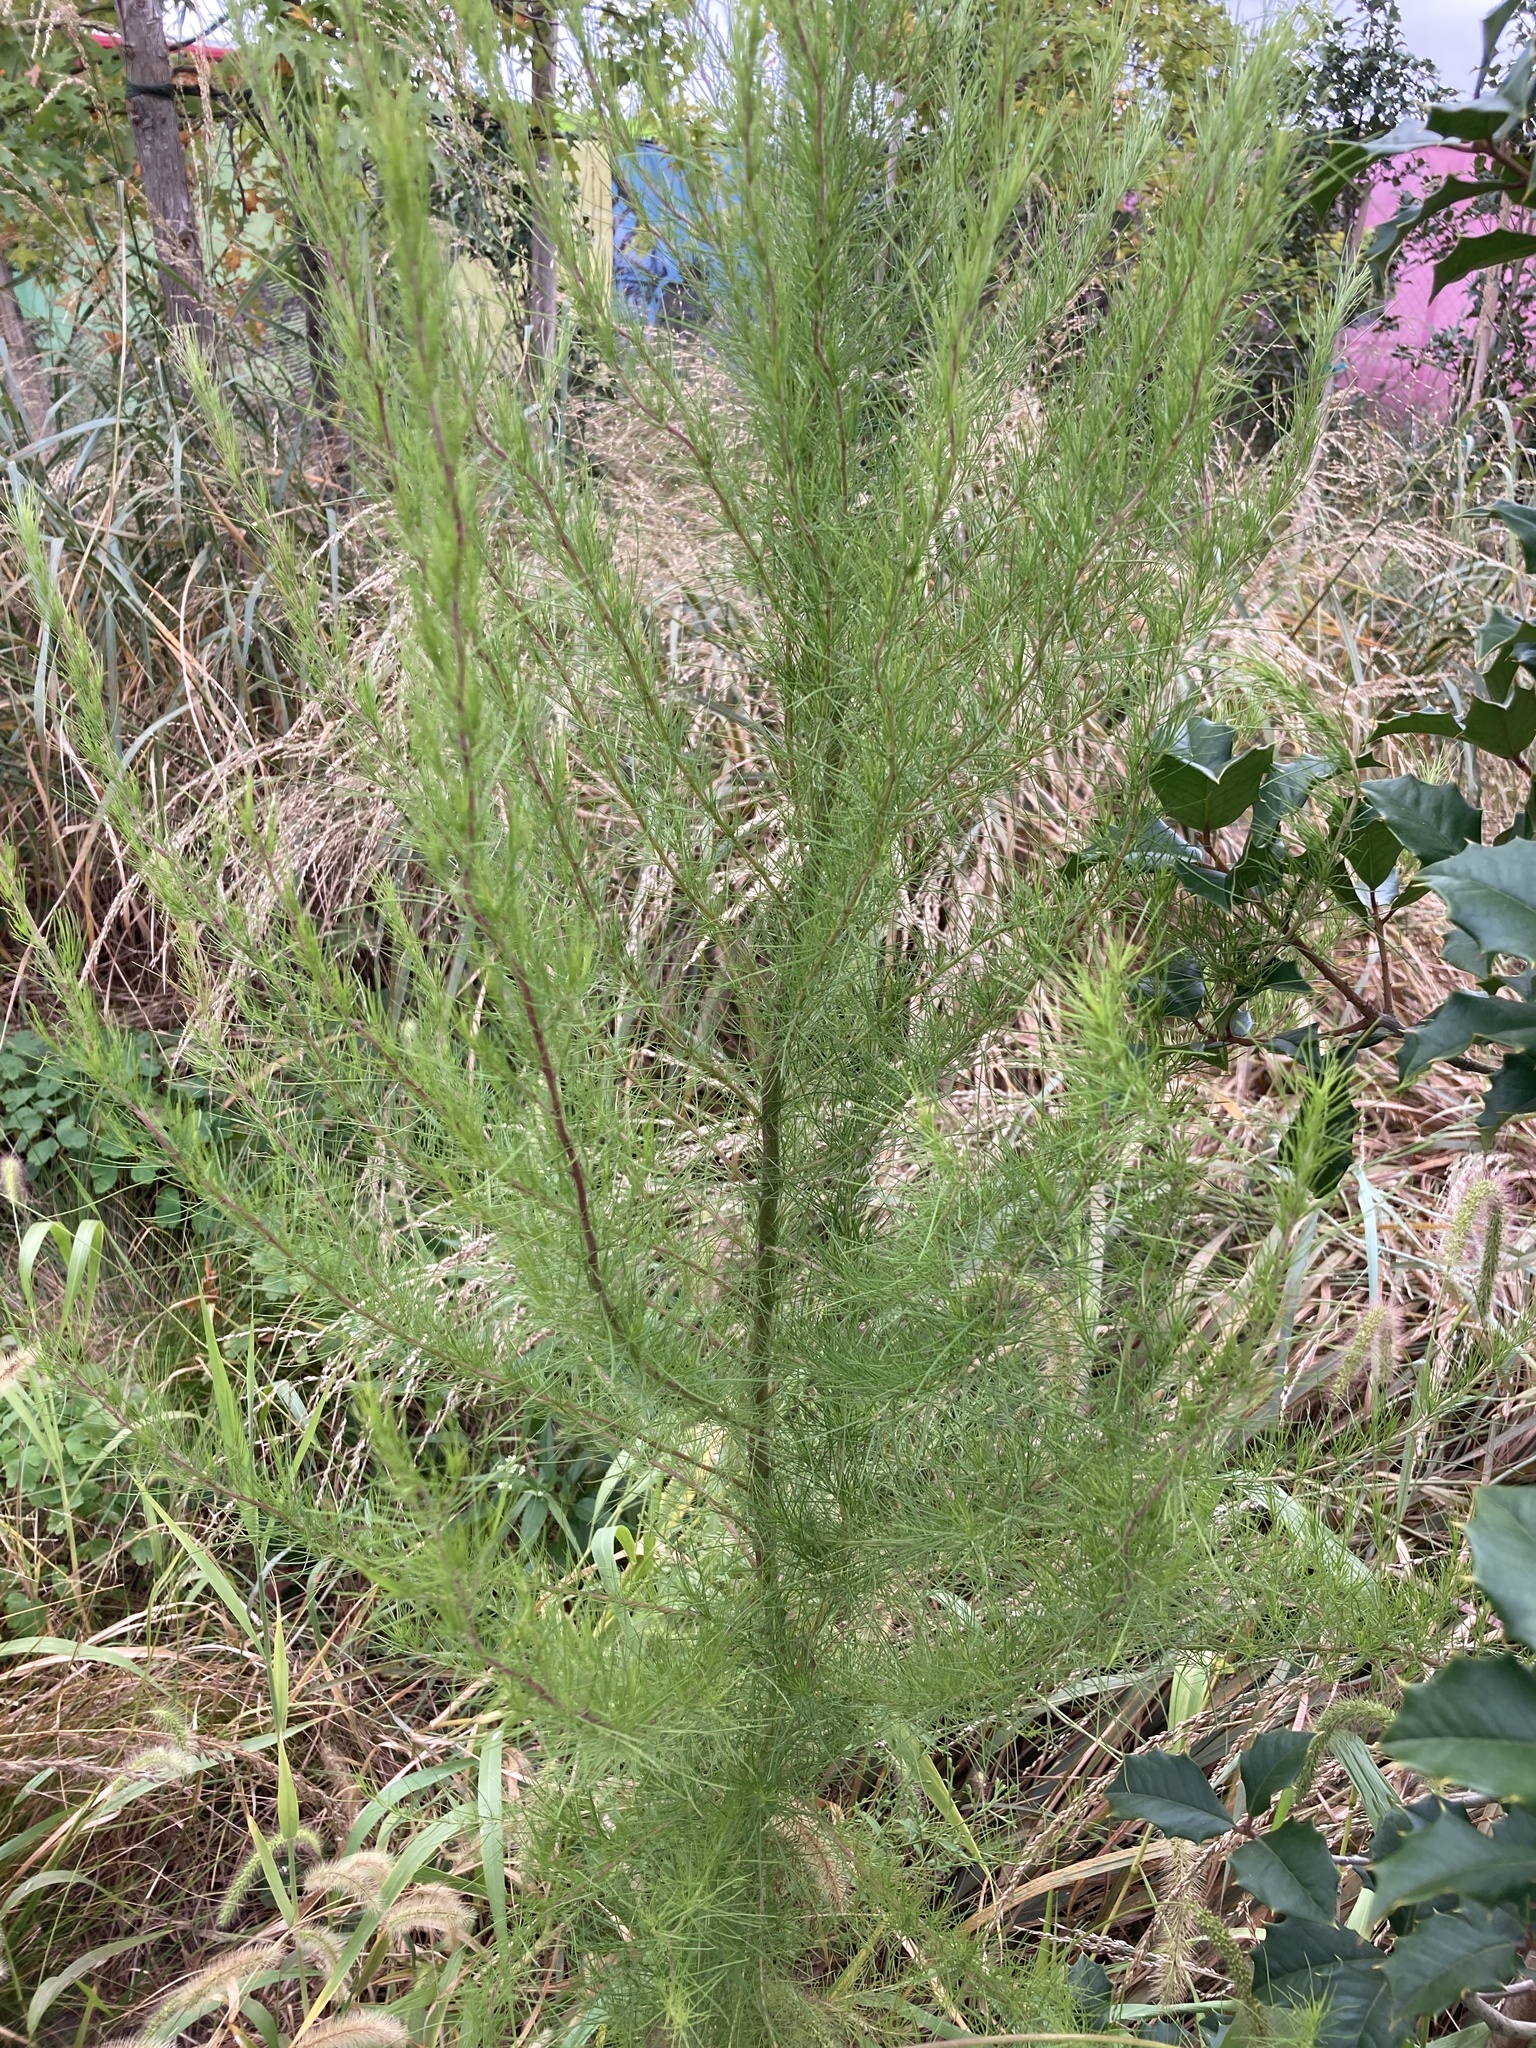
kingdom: Plantae
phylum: Tracheophyta
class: Magnoliopsida
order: Asterales
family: Asteraceae
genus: Eupatorium
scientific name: Eupatorium capillifolium
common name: Dog-fennel
